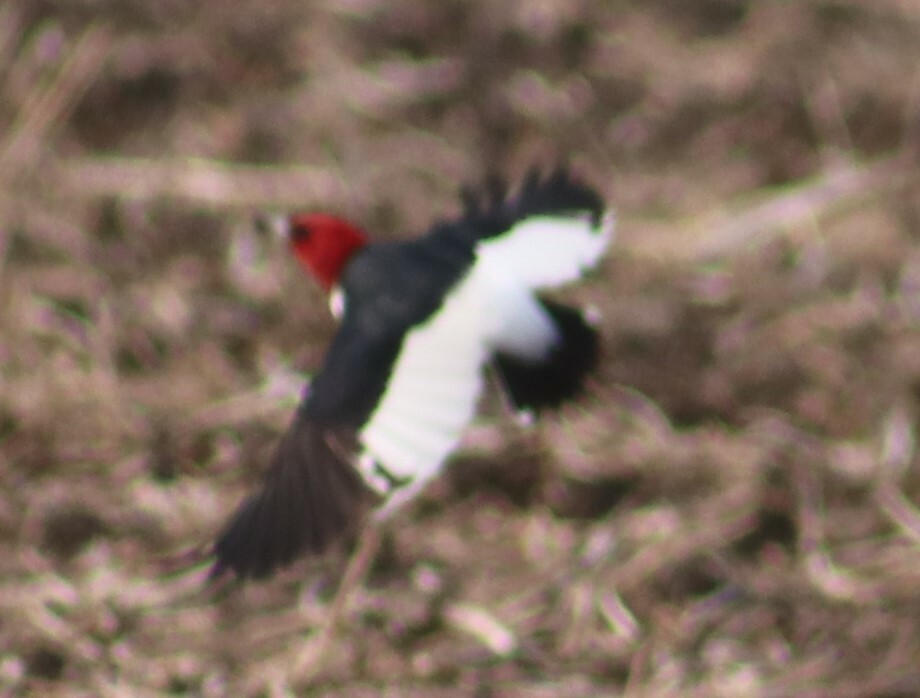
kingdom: Animalia
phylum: Chordata
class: Aves
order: Piciformes
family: Picidae
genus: Melanerpes
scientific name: Melanerpes erythrocephalus
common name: Red-headed woodpecker
